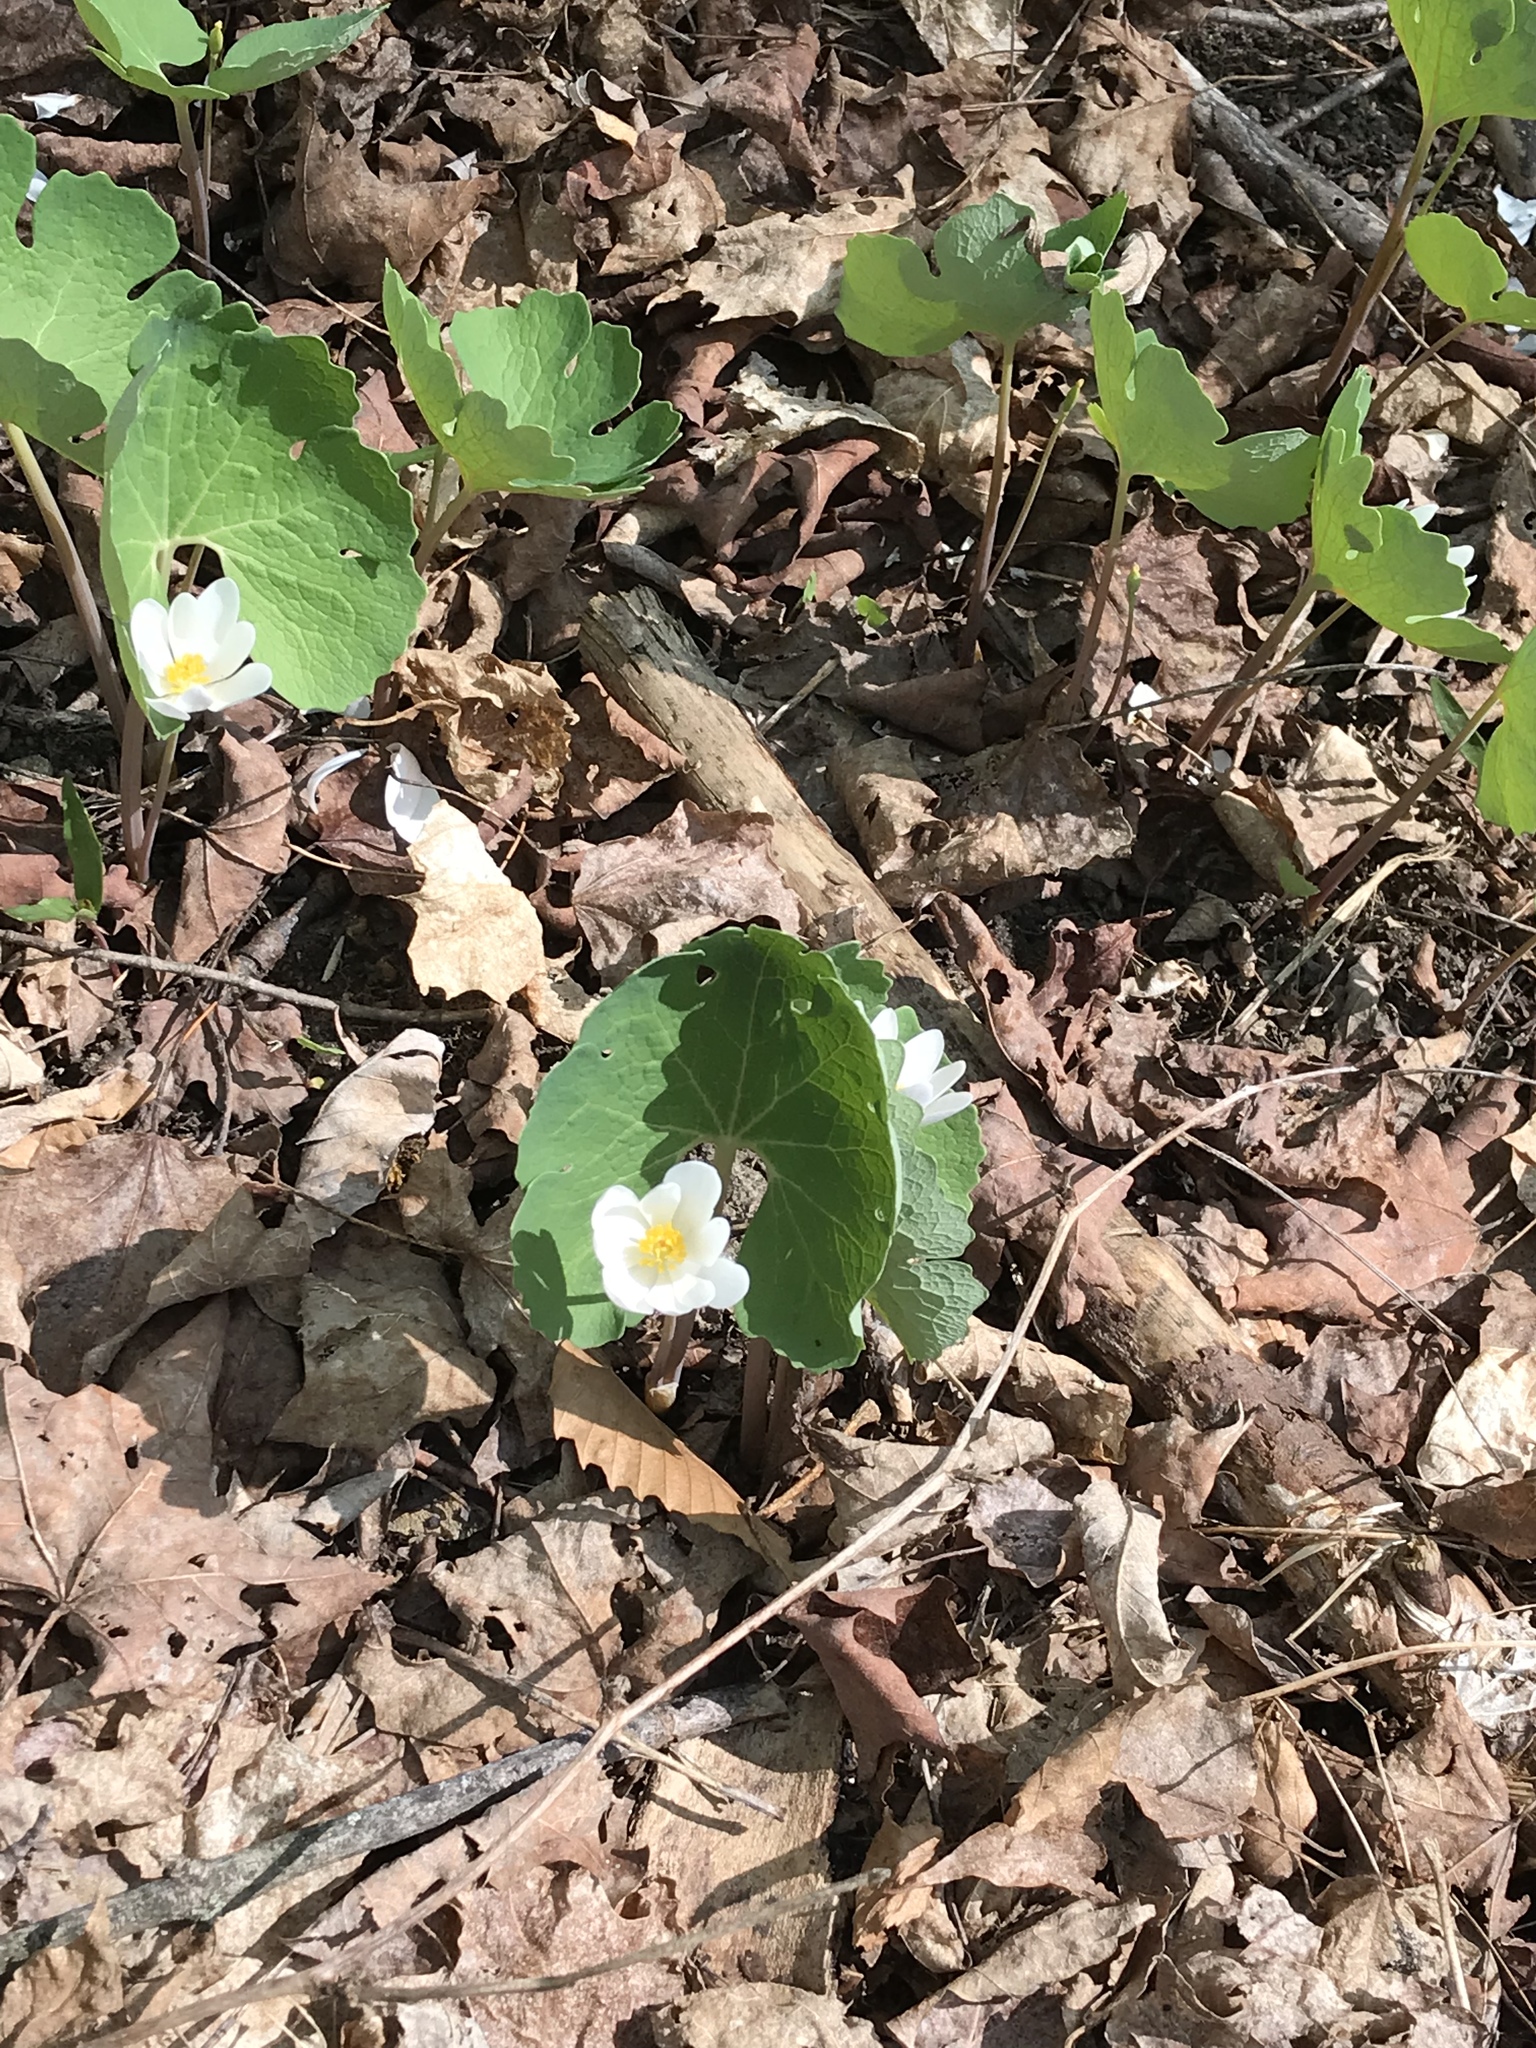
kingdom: Plantae
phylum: Tracheophyta
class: Magnoliopsida
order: Ranunculales
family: Papaveraceae
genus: Sanguinaria
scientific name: Sanguinaria canadensis
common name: Bloodroot
